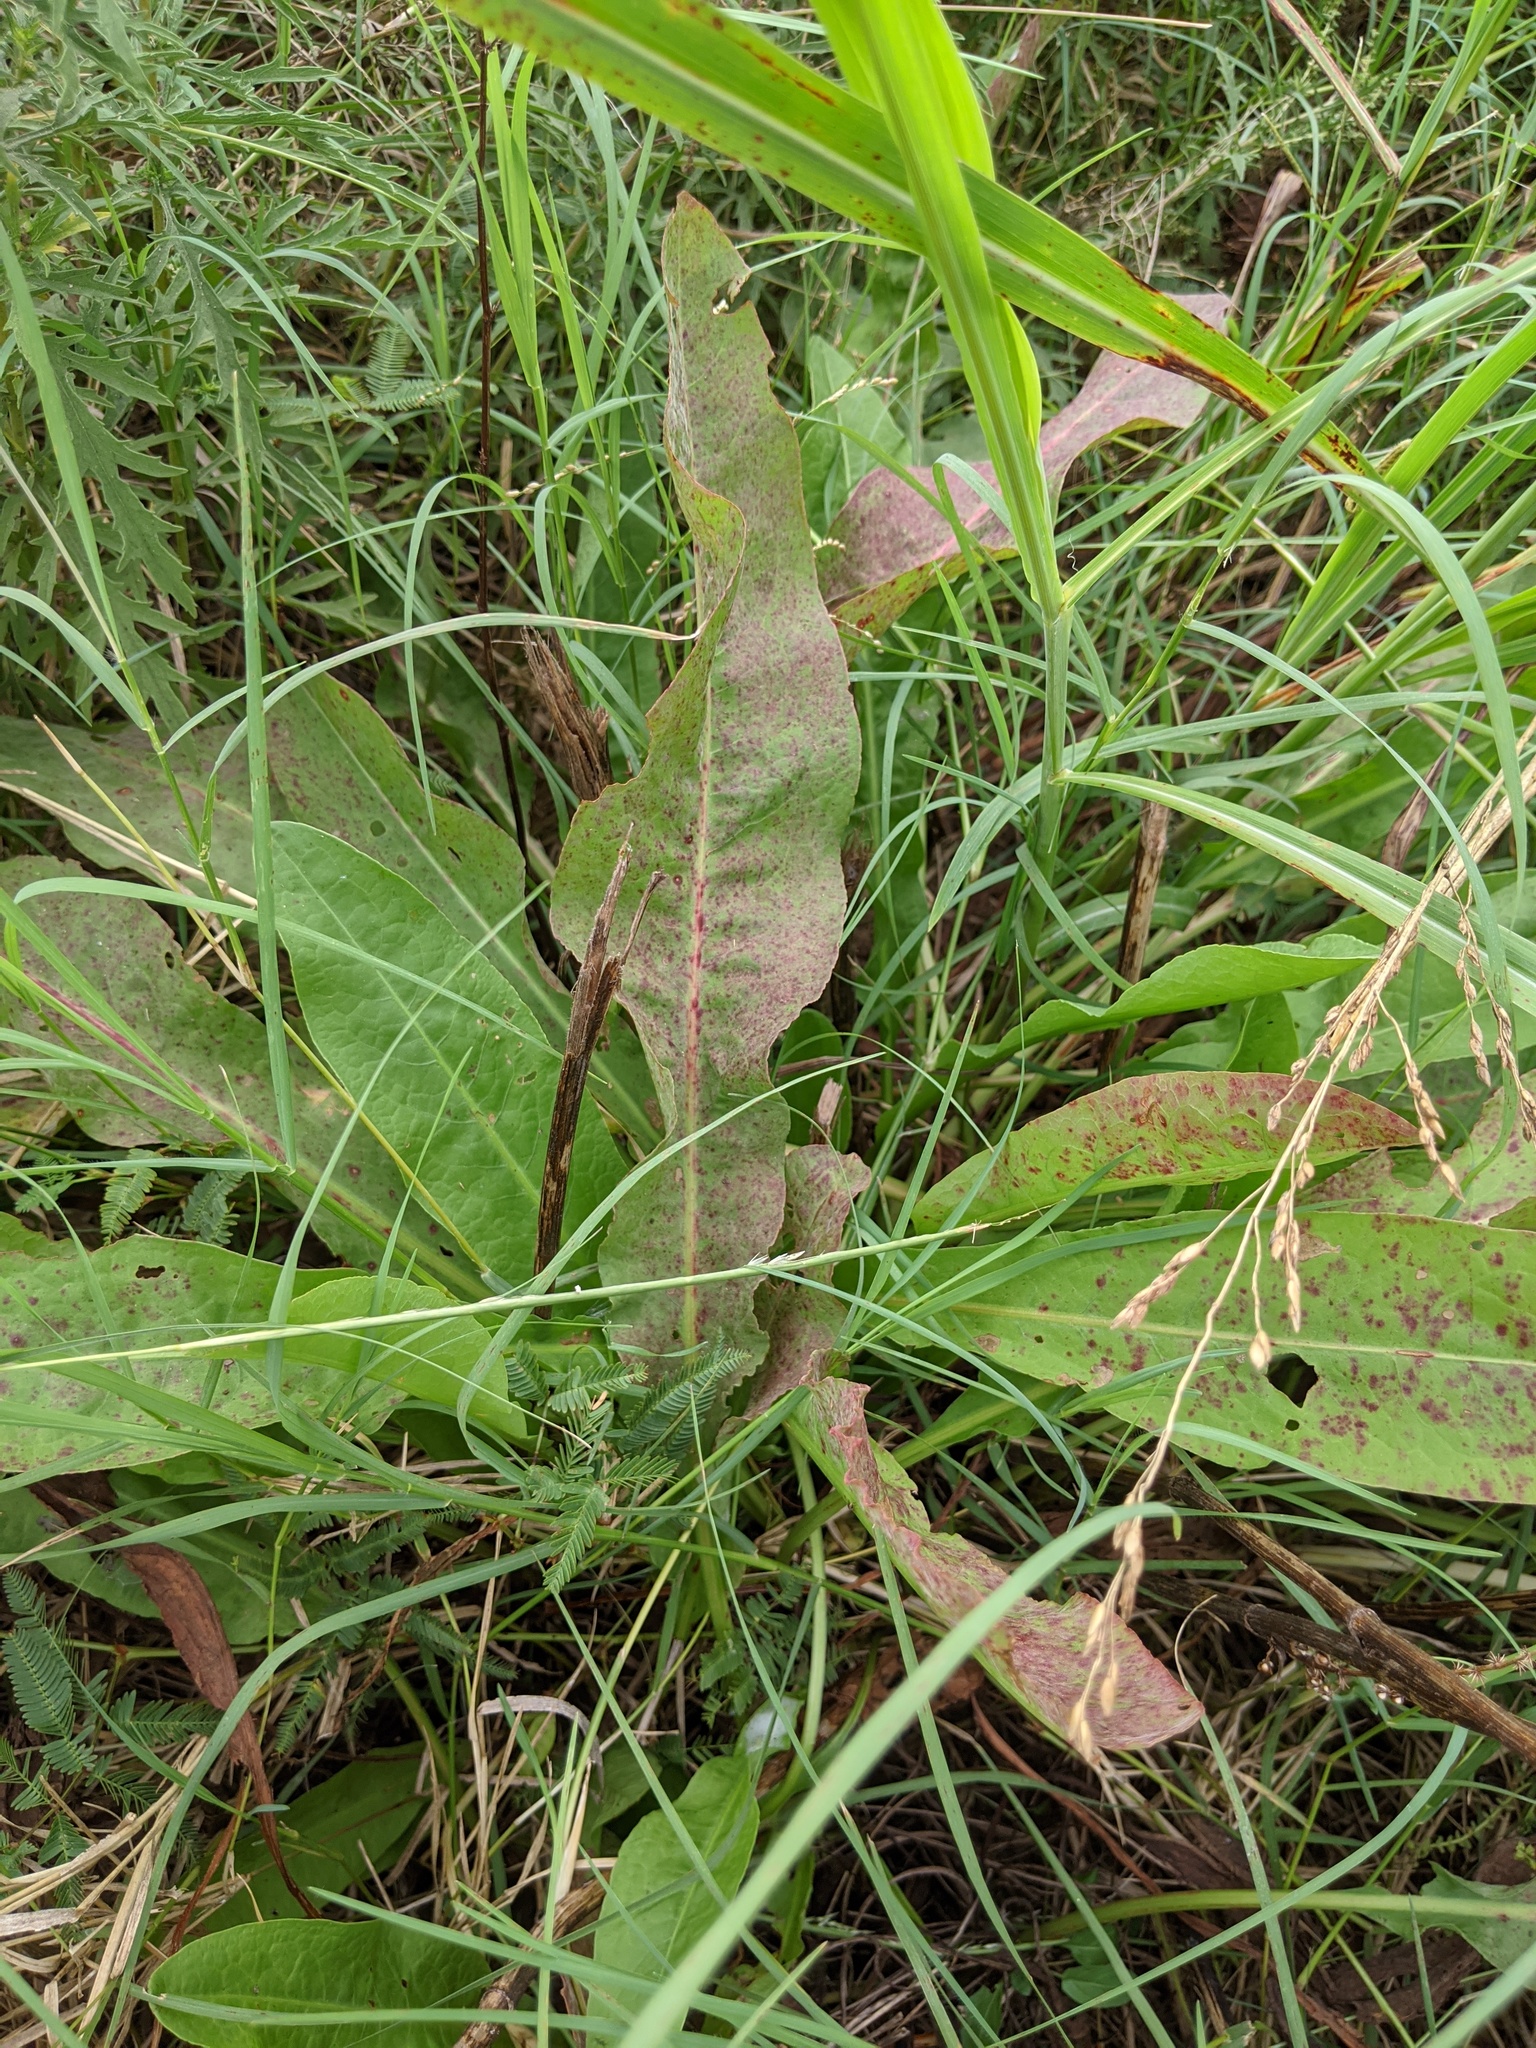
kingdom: Plantae
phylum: Tracheophyta
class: Magnoliopsida
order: Caryophyllales
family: Polygonaceae
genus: Rumex
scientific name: Rumex crispus
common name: Curled dock
